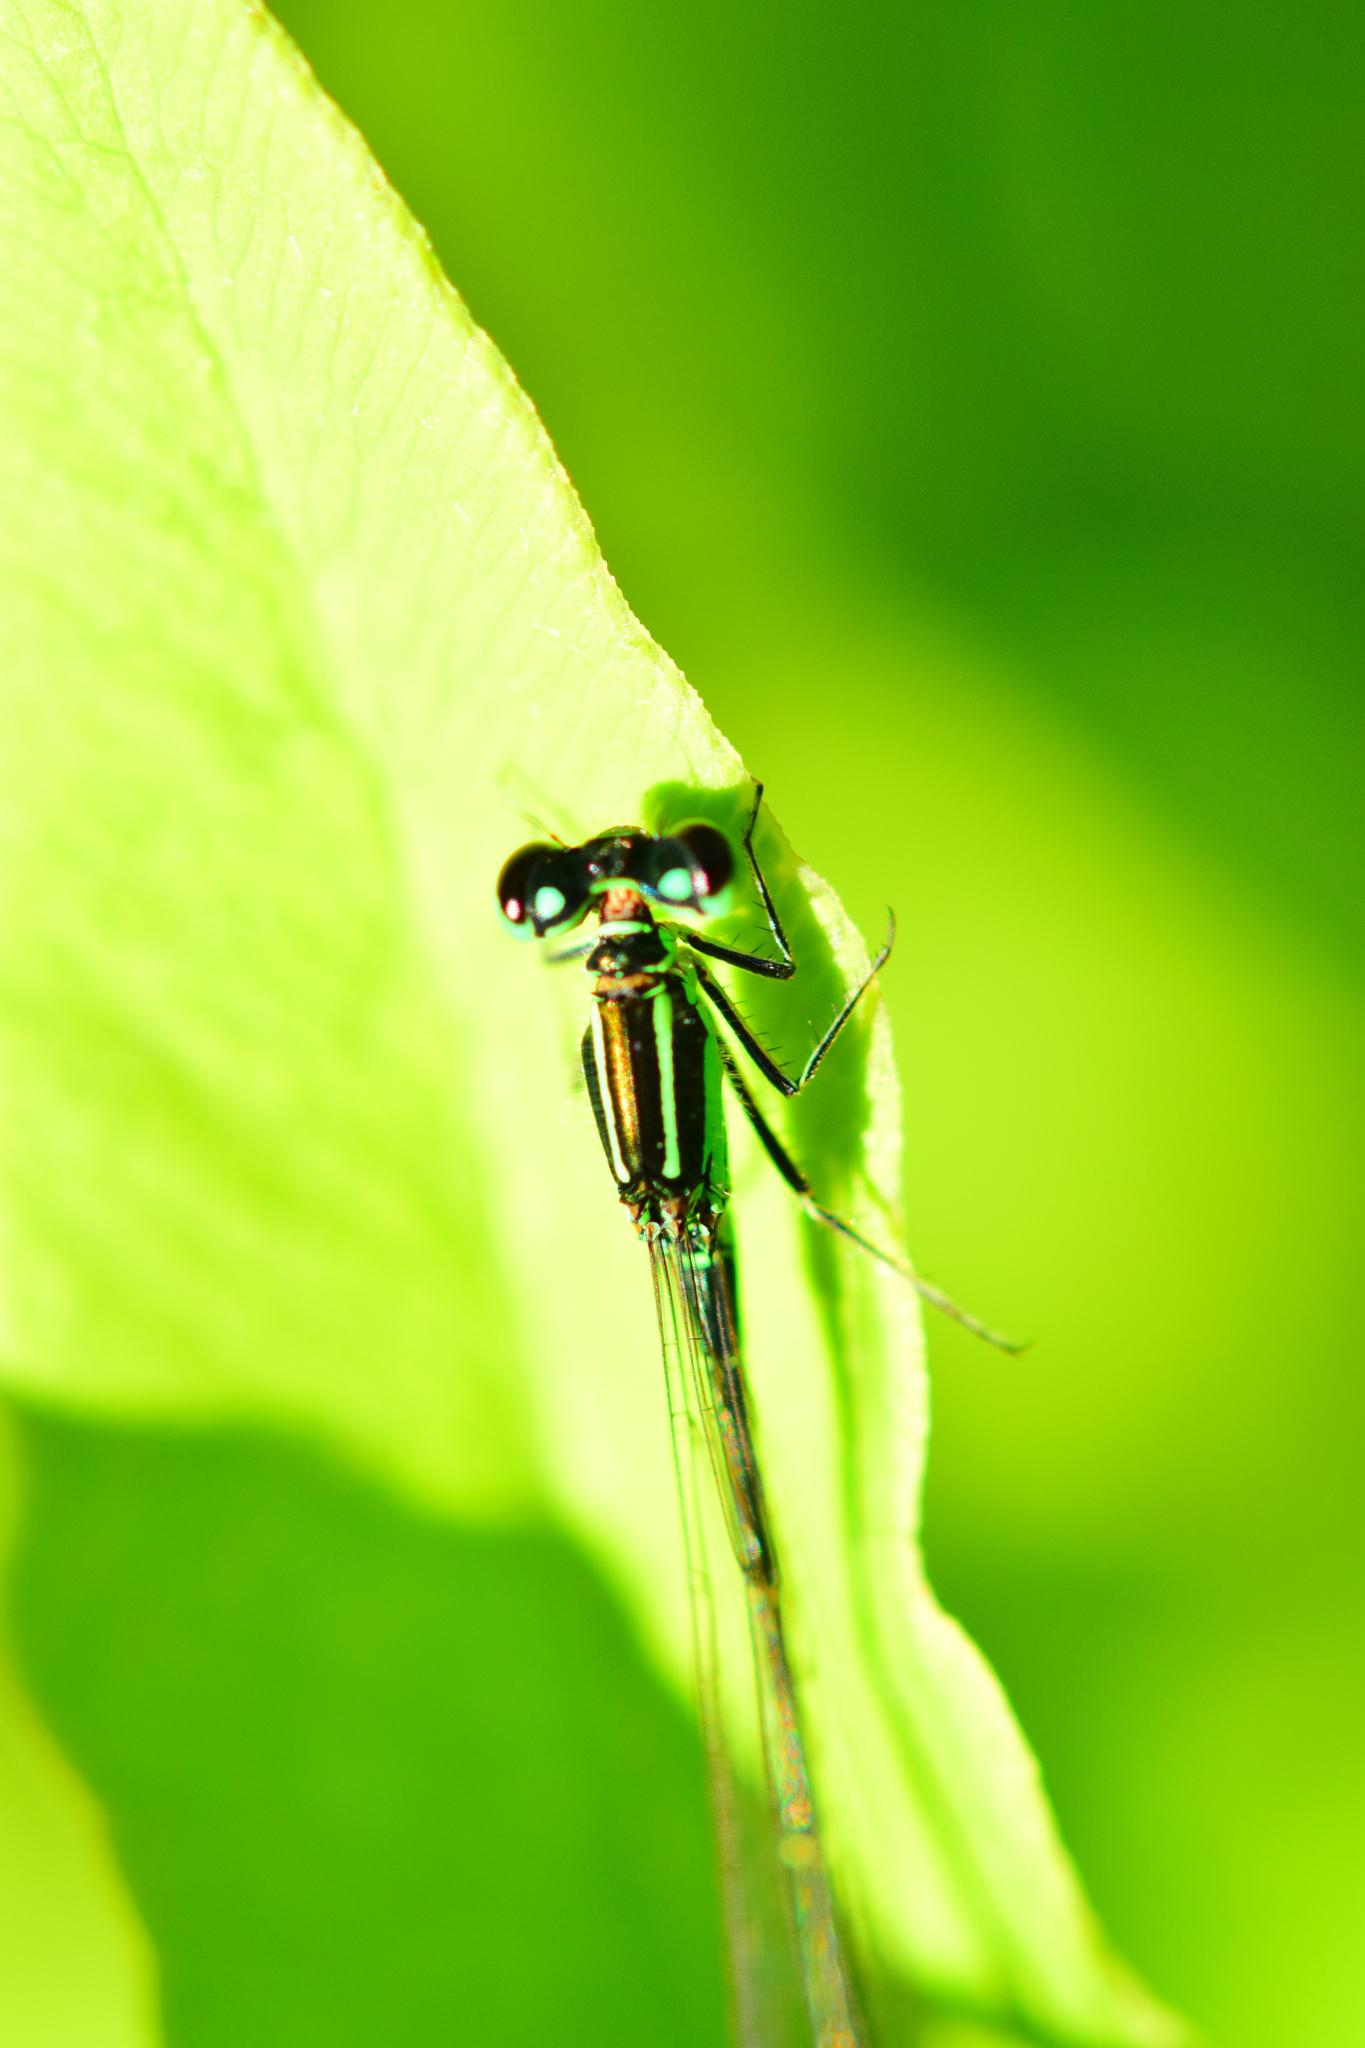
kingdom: Animalia
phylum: Arthropoda
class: Insecta
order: Odonata
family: Coenagrionidae
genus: Ischnura
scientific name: Ischnura verticalis
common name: Eastern forktail
